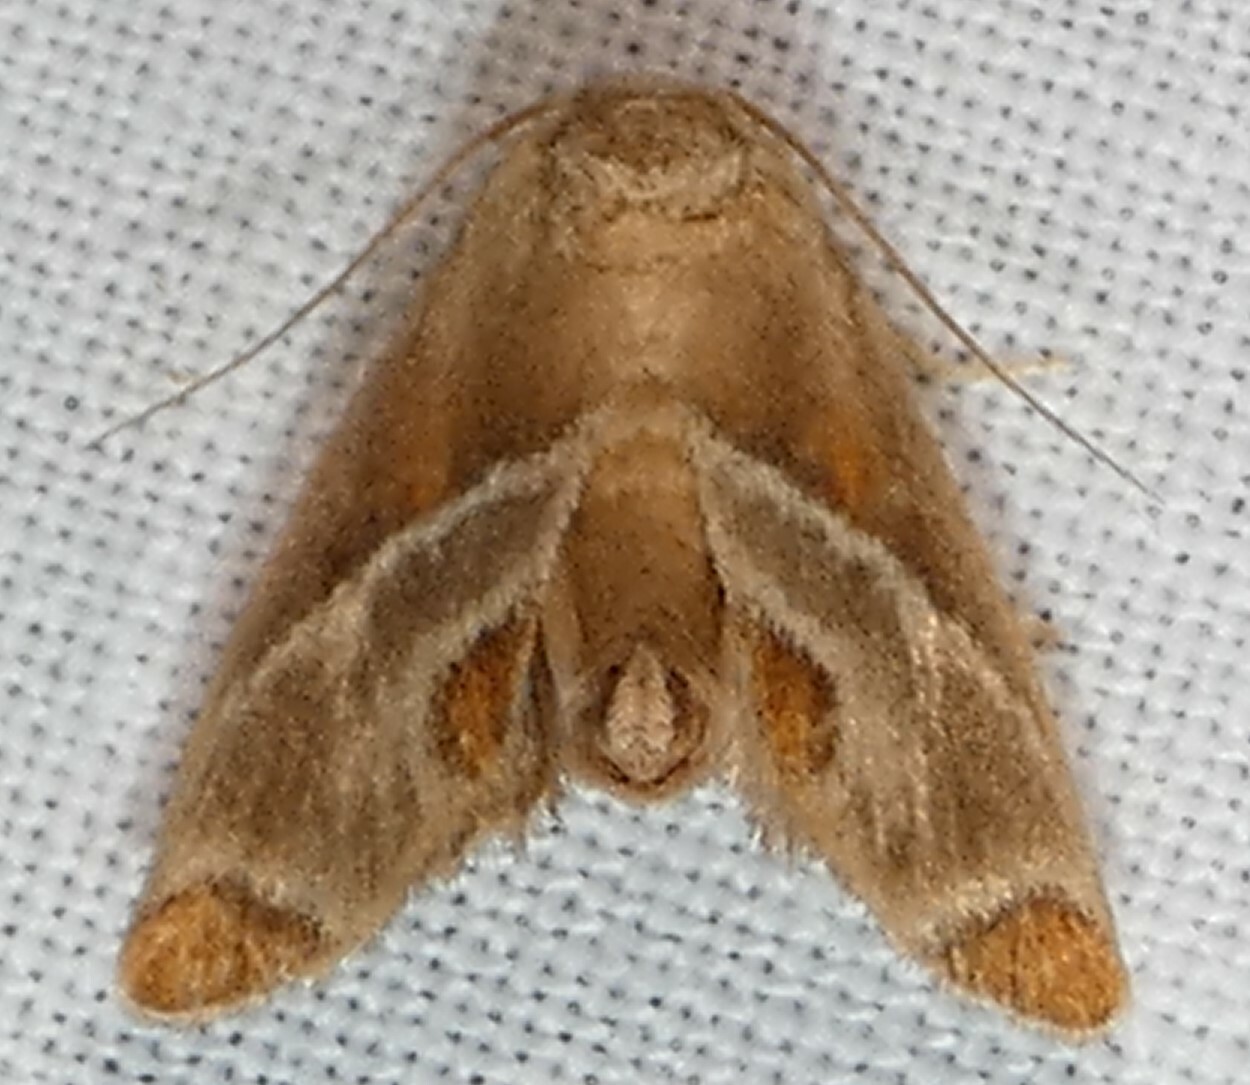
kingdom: Animalia
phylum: Arthropoda
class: Insecta
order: Lepidoptera
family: Limacodidae
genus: Apoda
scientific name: Apoda biguttata
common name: Shagreened slug moth
